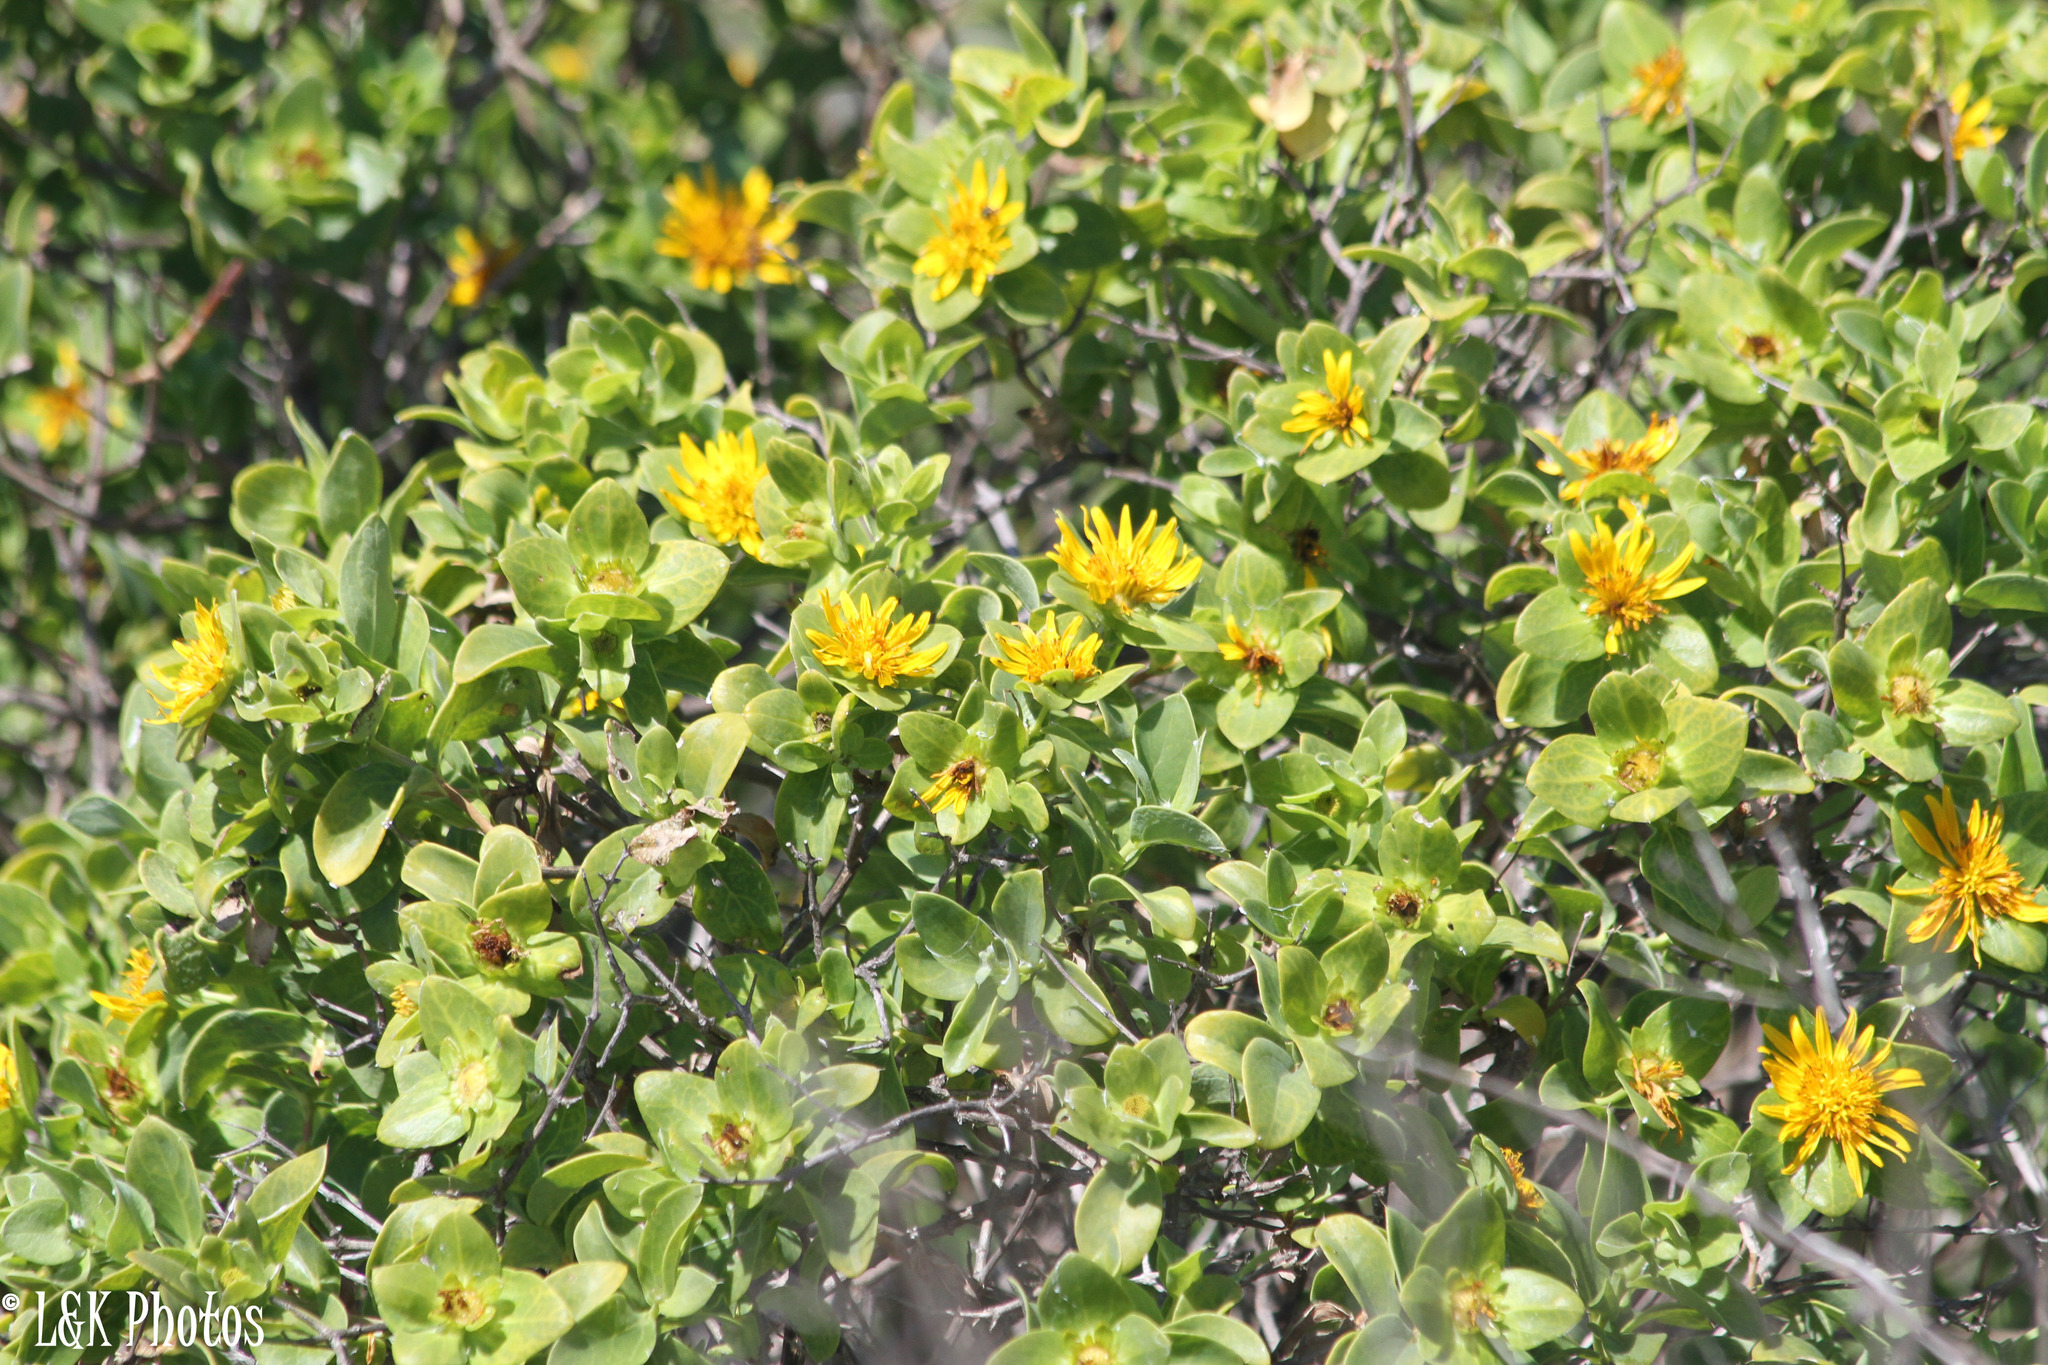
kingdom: Plantae
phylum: Tracheophyta
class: Magnoliopsida
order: Asterales
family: Asteraceae
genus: Didelta
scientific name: Didelta spinosa
